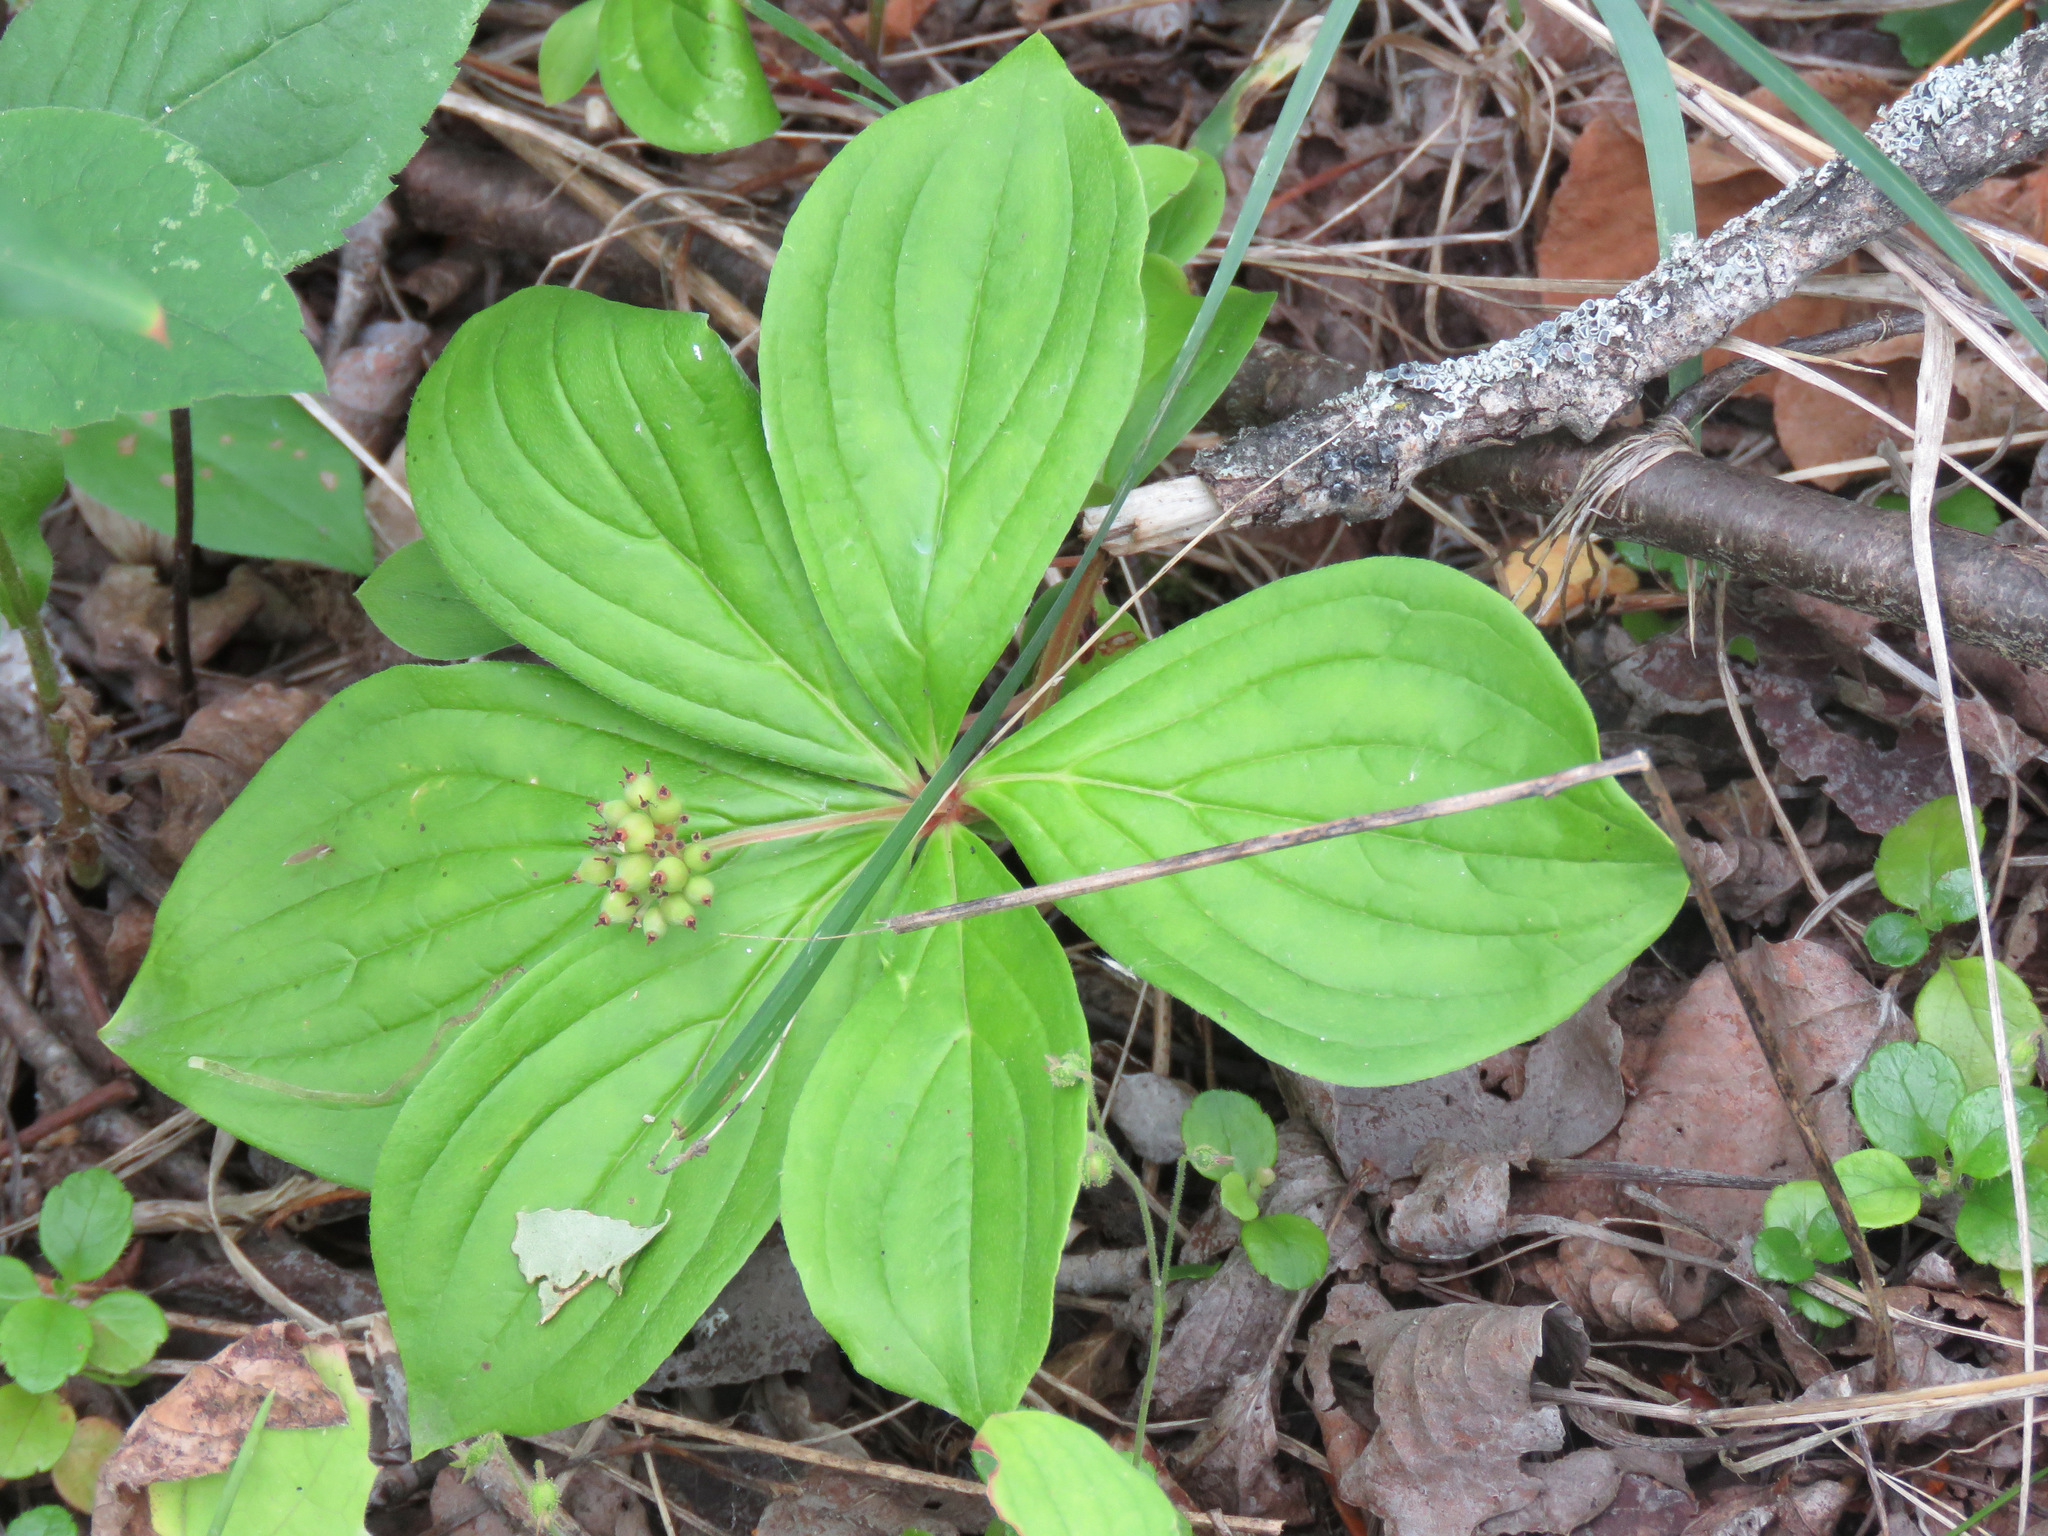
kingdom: Plantae
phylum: Tracheophyta
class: Magnoliopsida
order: Cornales
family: Cornaceae
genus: Cornus
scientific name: Cornus canadensis
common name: Creeping dogwood
